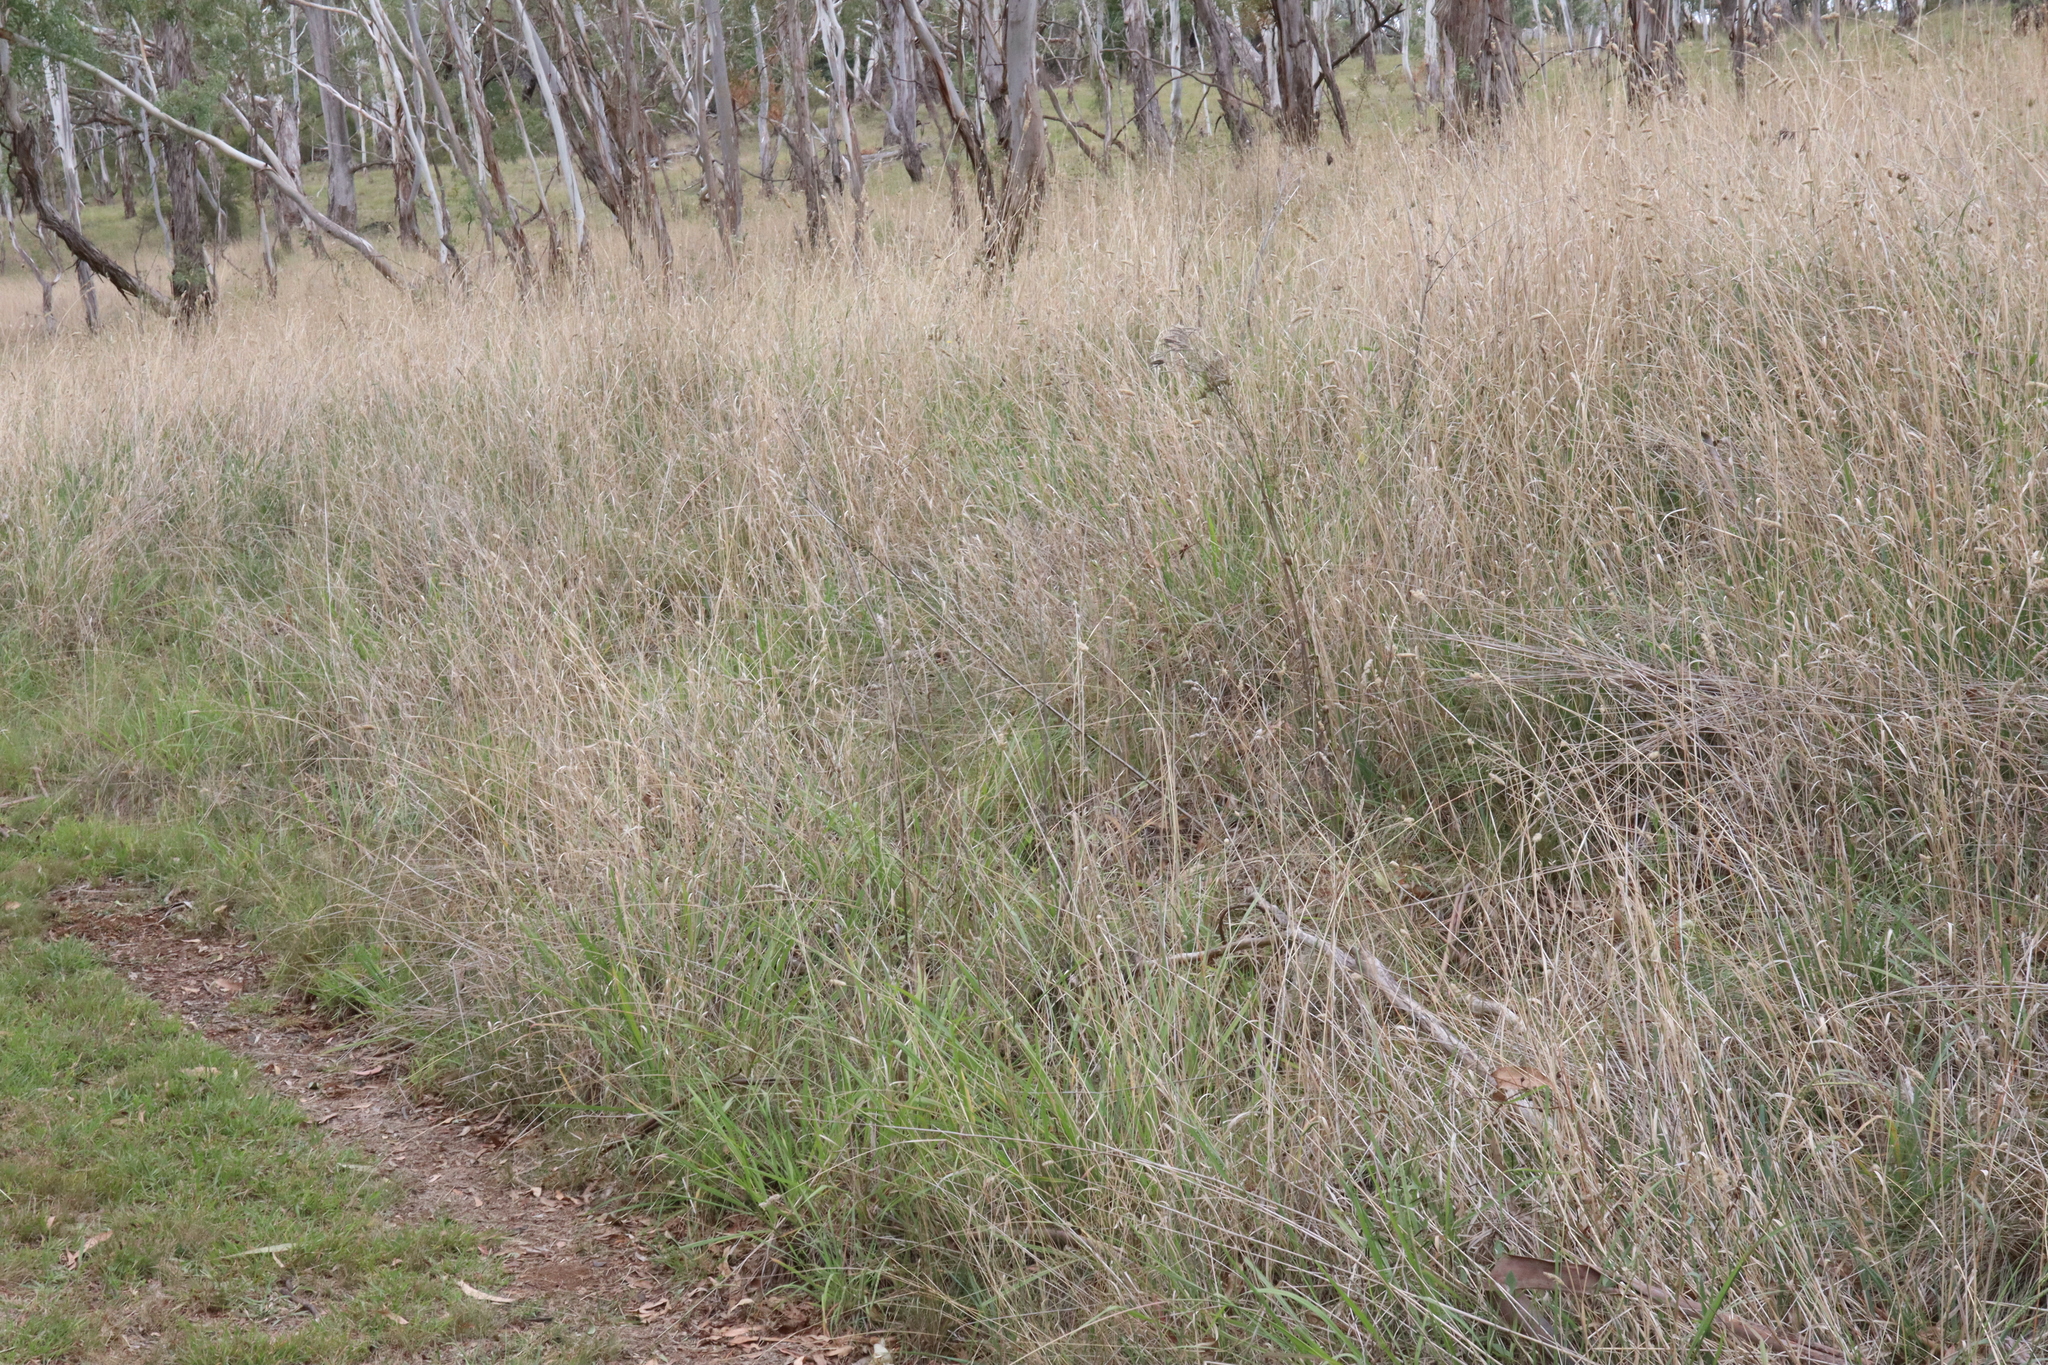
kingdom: Plantae
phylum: Tracheophyta
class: Liliopsida
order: Poales
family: Poaceae
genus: Phalaris
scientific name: Phalaris aquatica
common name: Bulbous canary-grass
